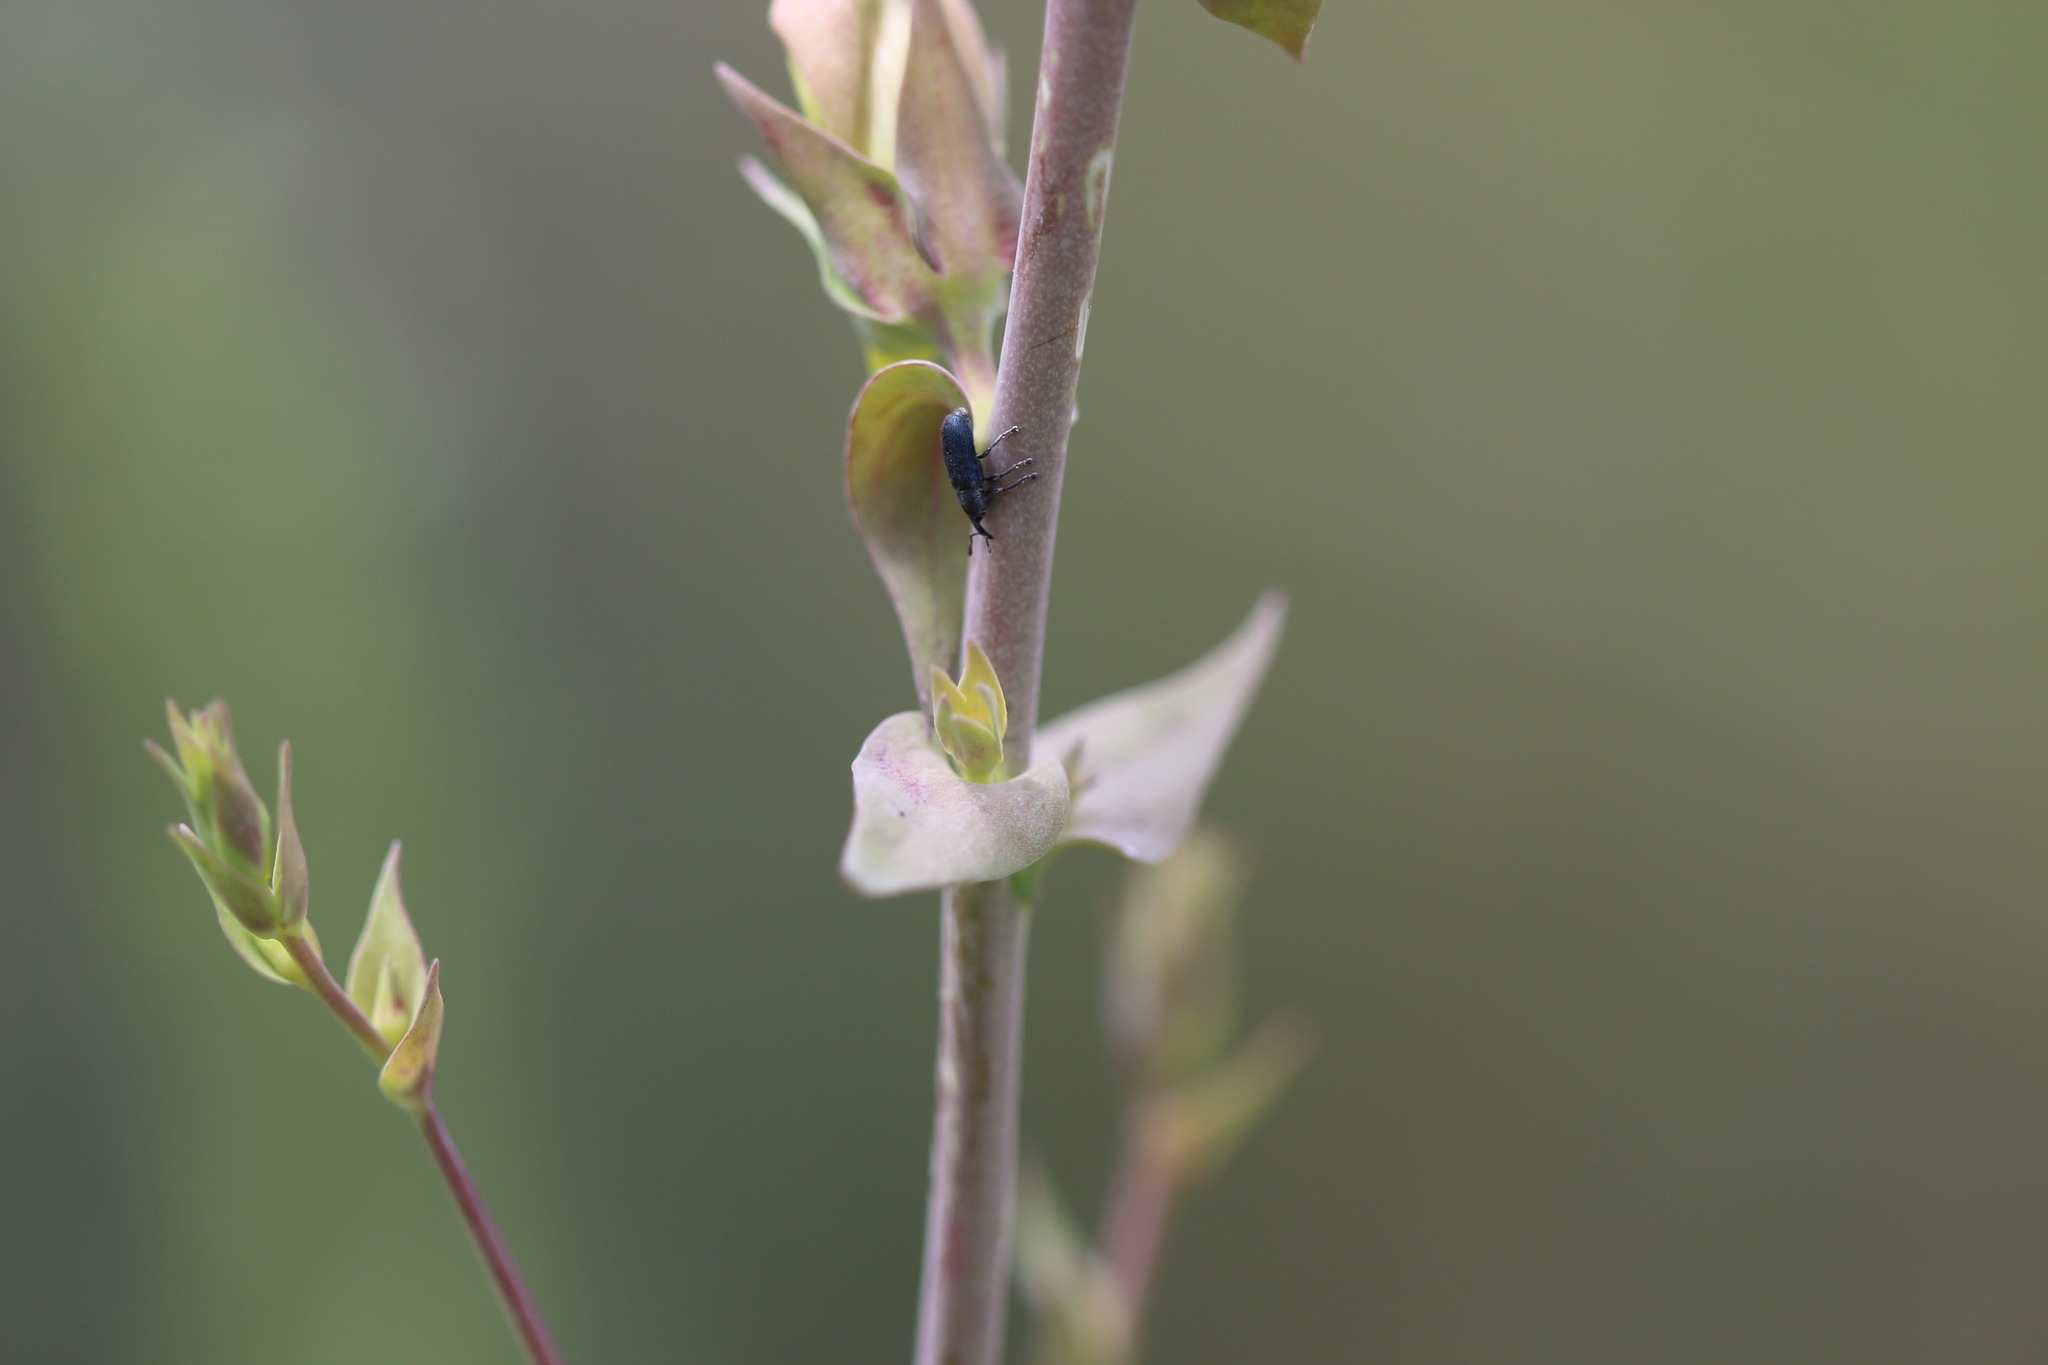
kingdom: Animalia
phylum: Arthropoda
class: Insecta
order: Coleoptera
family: Curculionidae
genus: Mecinus
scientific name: Mecinus janthiniformis
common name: Dalmatian toadflax stem weevil
